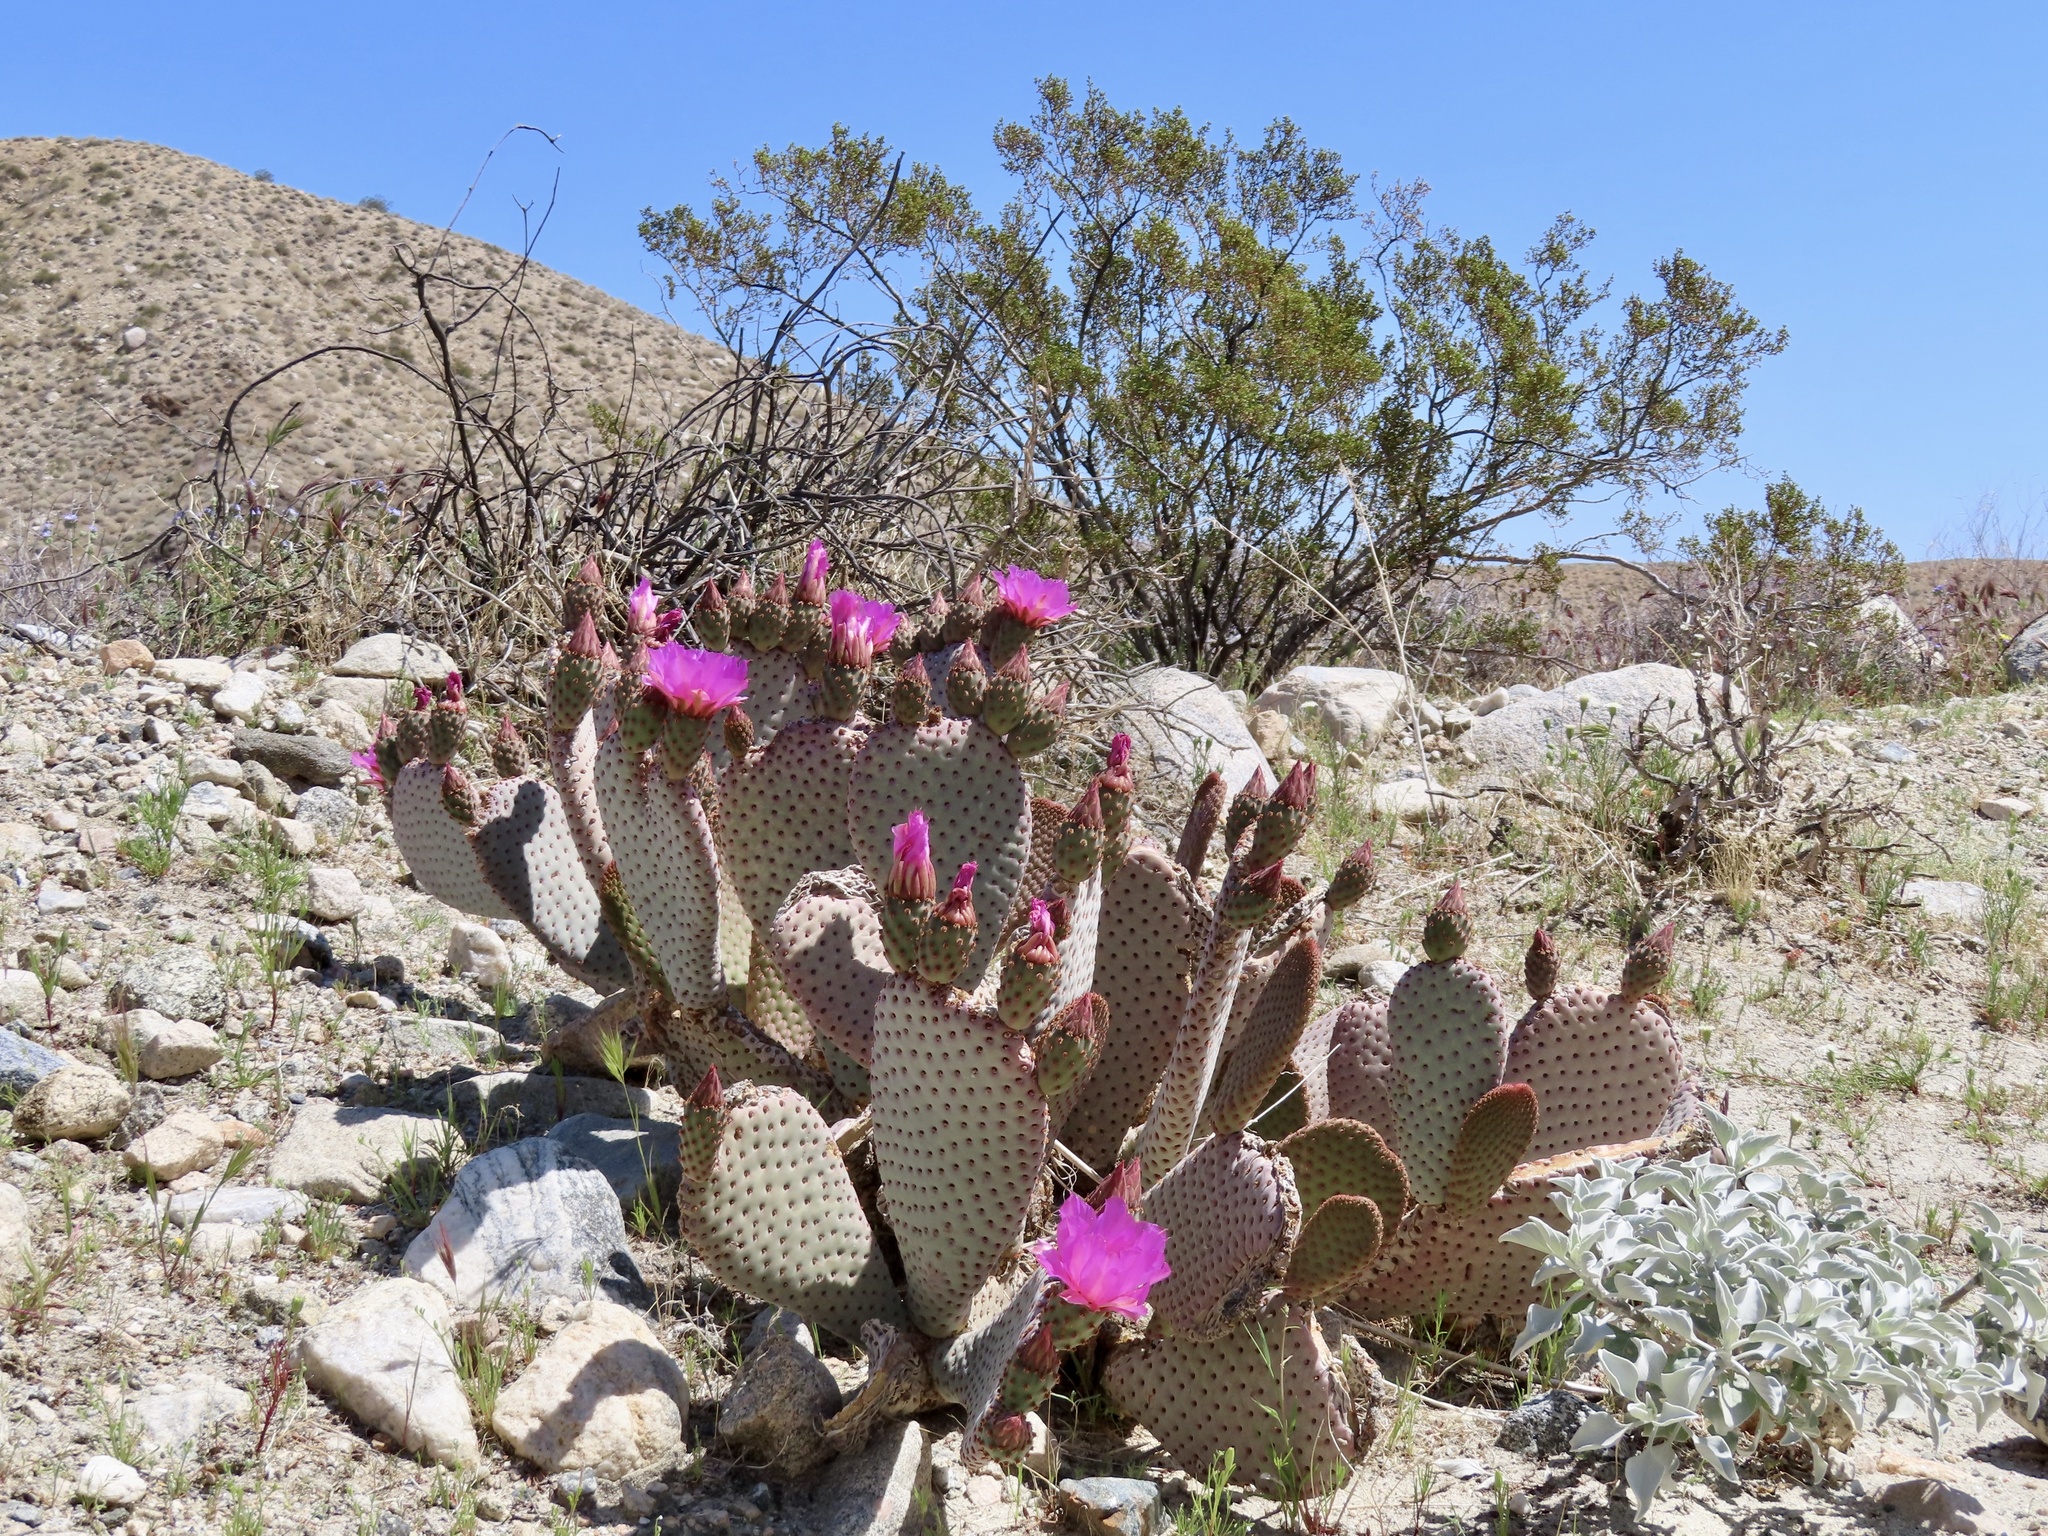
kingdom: Plantae
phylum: Tracheophyta
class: Magnoliopsida
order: Caryophyllales
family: Cactaceae
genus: Opuntia
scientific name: Opuntia basilaris
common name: Beavertail prickly-pear
